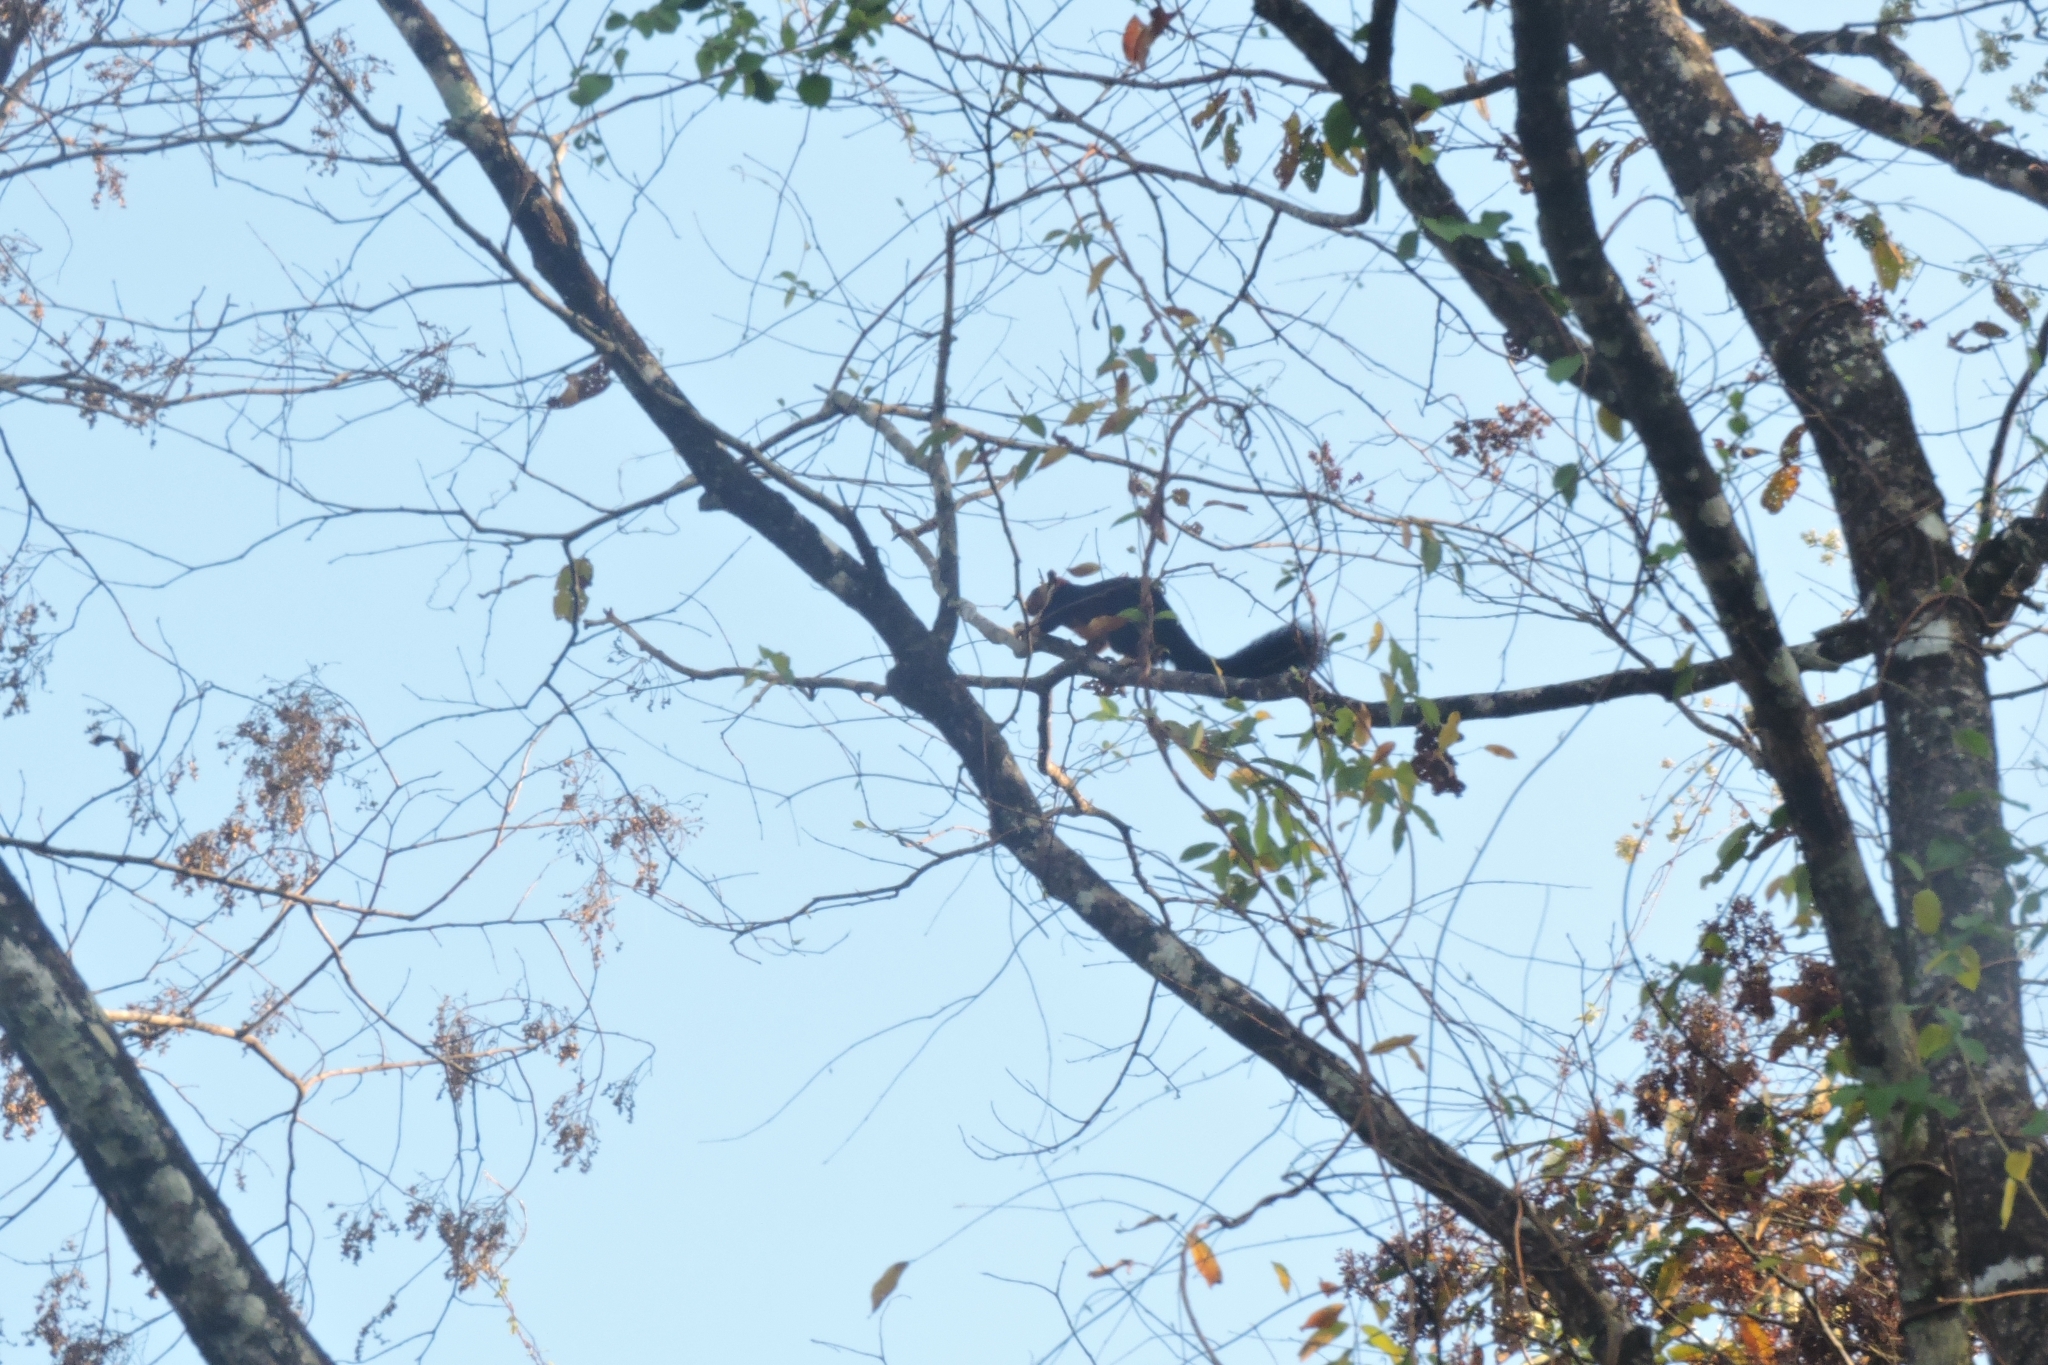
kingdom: Animalia
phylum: Chordata
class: Mammalia
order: Rodentia
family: Sciuridae
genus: Ratufa
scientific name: Ratufa indica
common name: Indian giant squirrel
